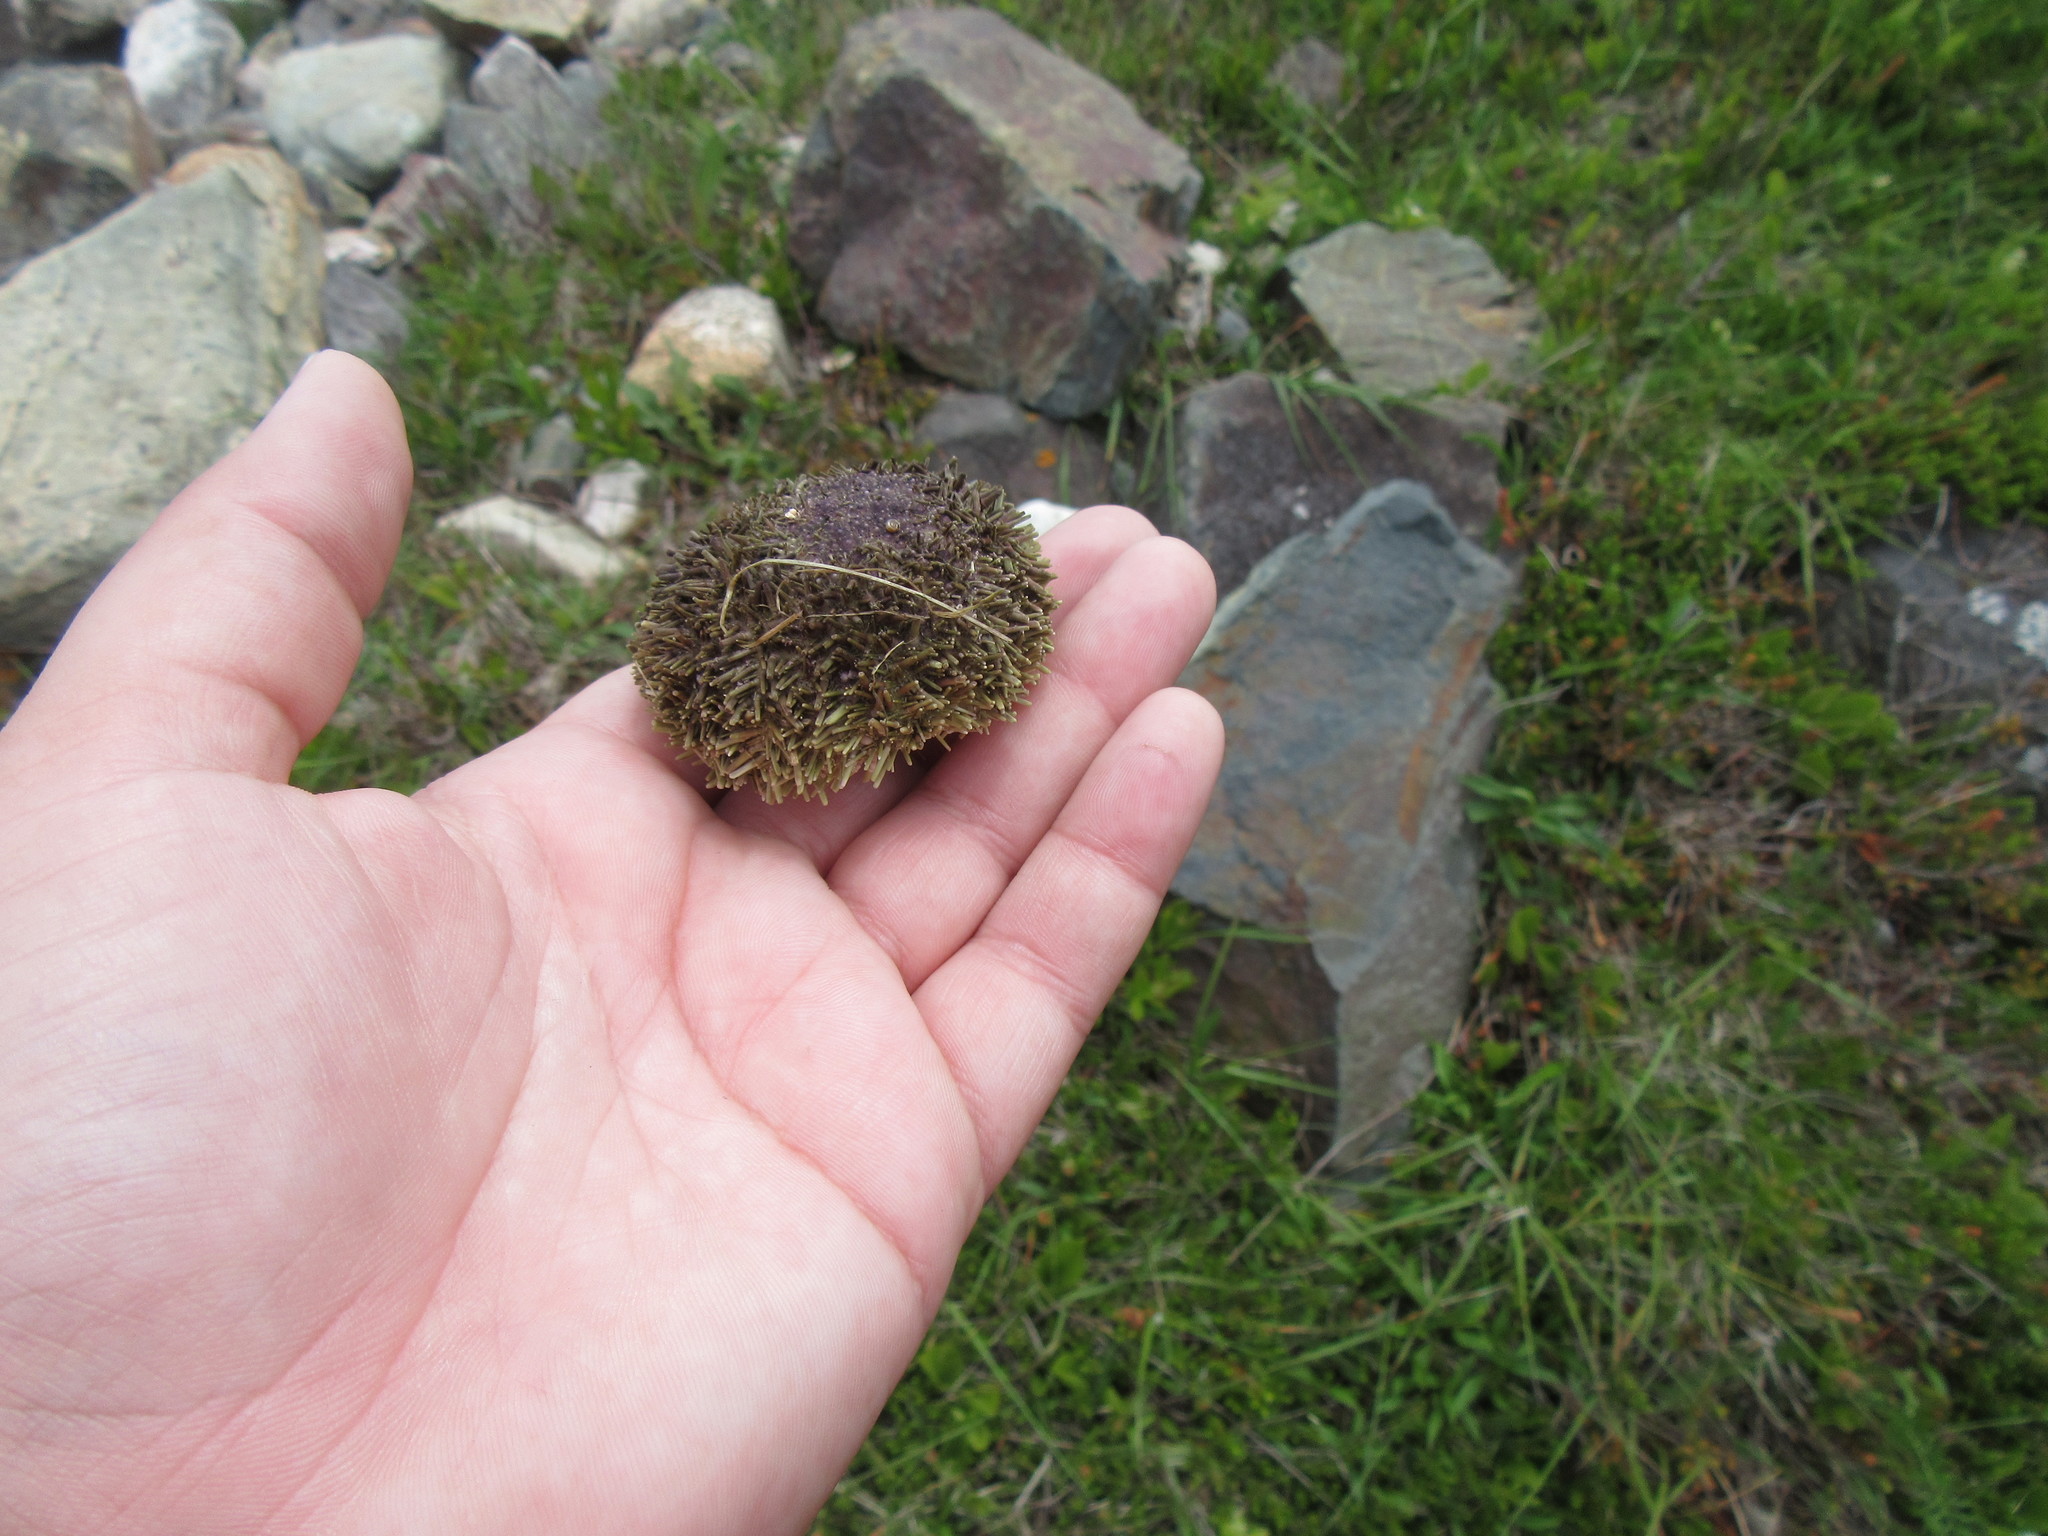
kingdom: Animalia
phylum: Echinodermata
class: Echinoidea
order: Camarodonta
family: Strongylocentrotidae
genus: Strongylocentrotus
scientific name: Strongylocentrotus droebachiensis
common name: Northern sea urchin
